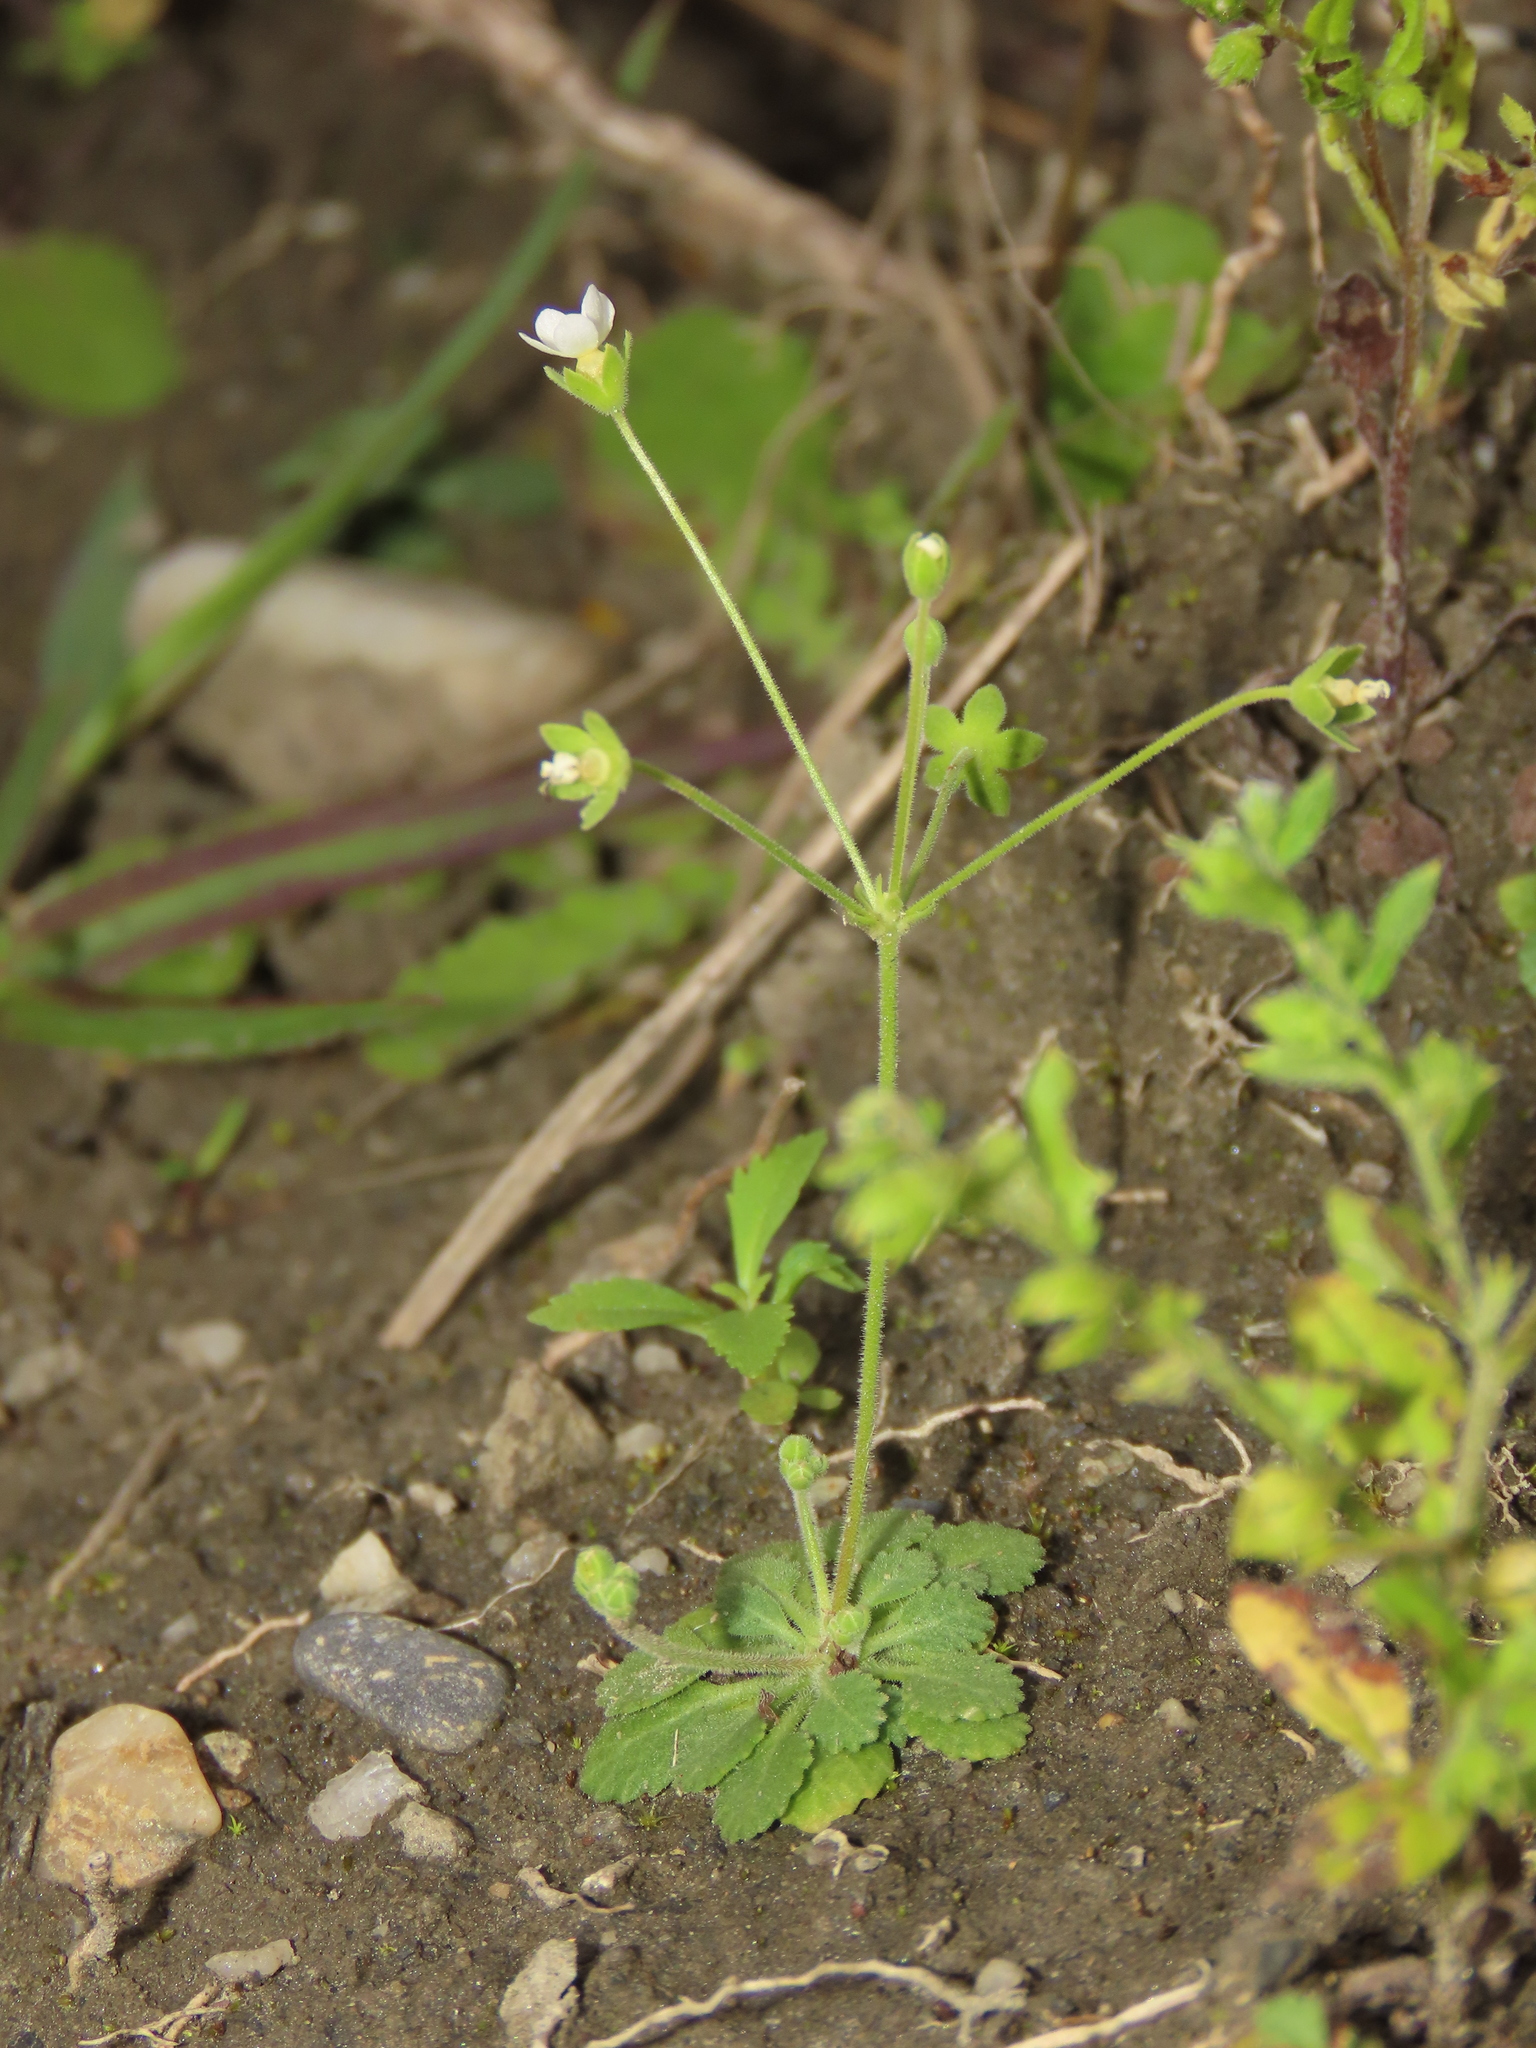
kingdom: Plantae
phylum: Tracheophyta
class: Magnoliopsida
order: Ericales
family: Primulaceae
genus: Androsace
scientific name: Androsace umbellata
